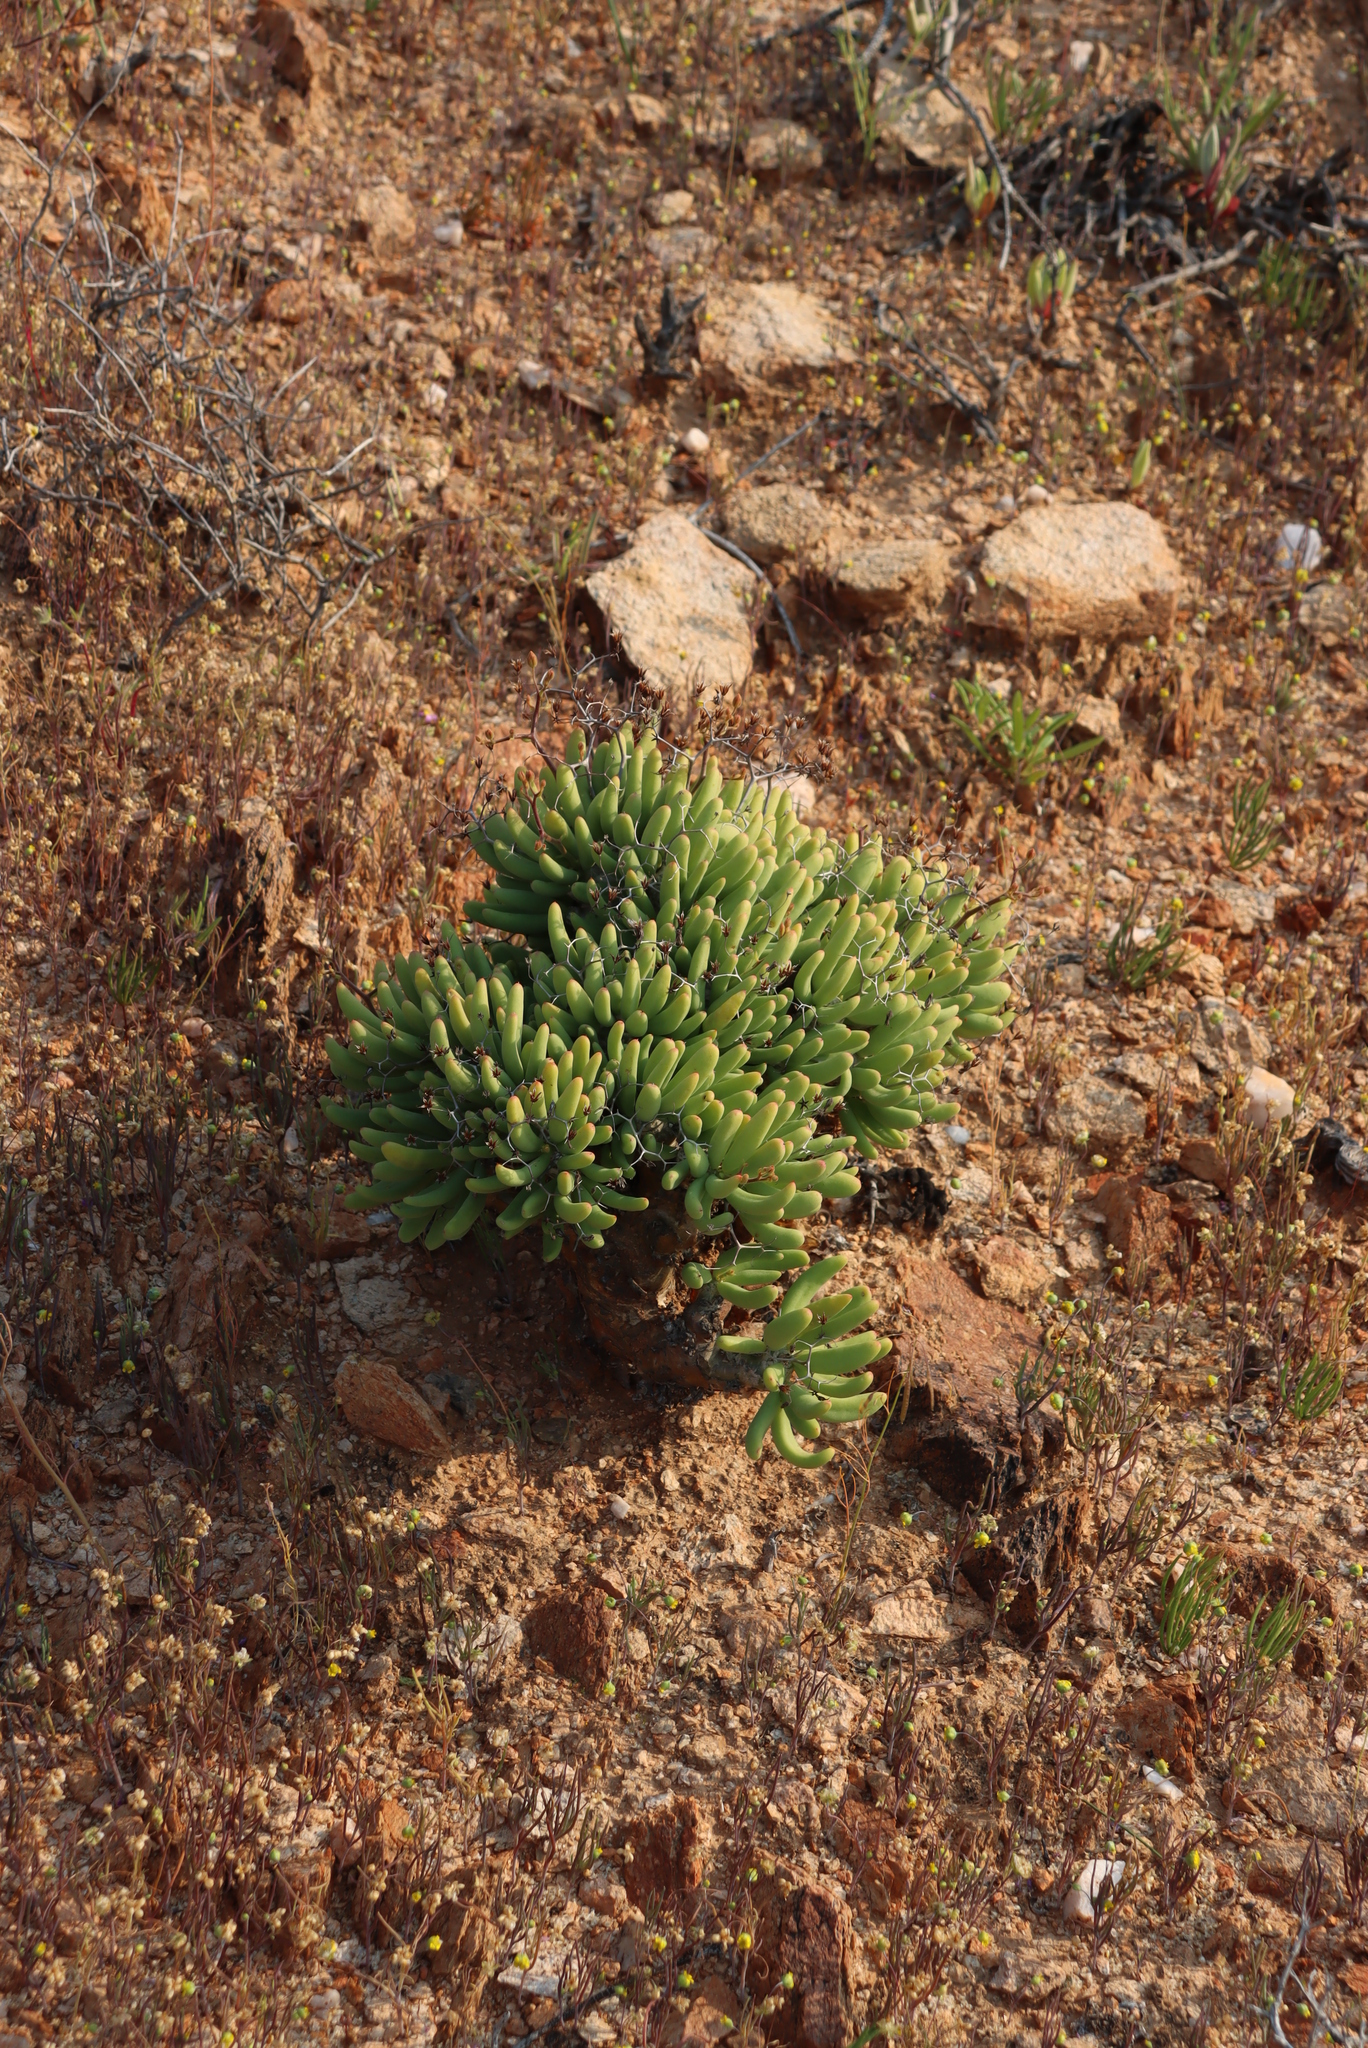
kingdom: Plantae
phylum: Tracheophyta
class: Magnoliopsida
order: Saxifragales
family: Crassulaceae
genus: Tylecodon
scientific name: Tylecodon reticulatus
